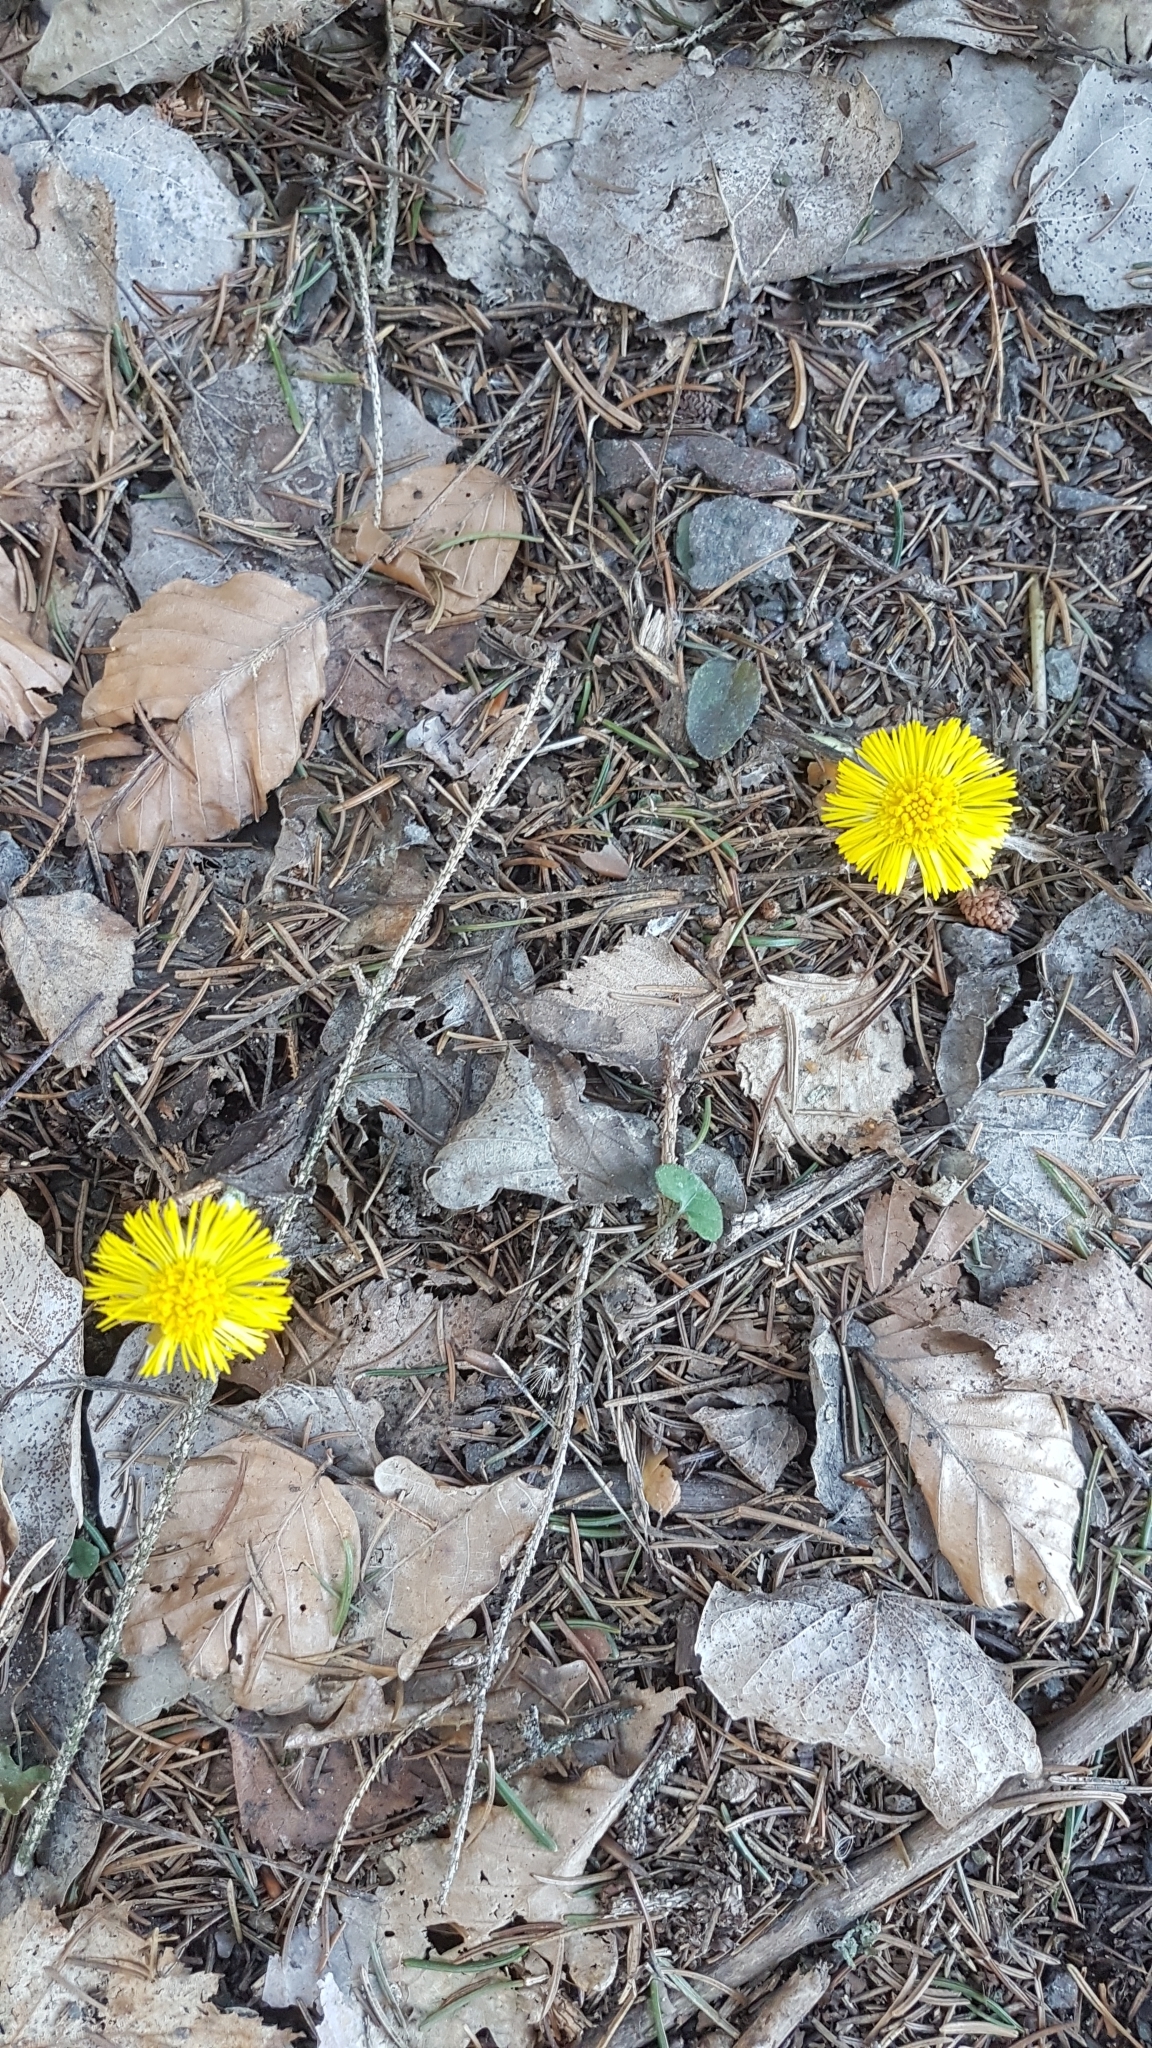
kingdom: Plantae
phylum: Tracheophyta
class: Magnoliopsida
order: Asterales
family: Asteraceae
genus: Tussilago
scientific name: Tussilago farfara
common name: Coltsfoot
